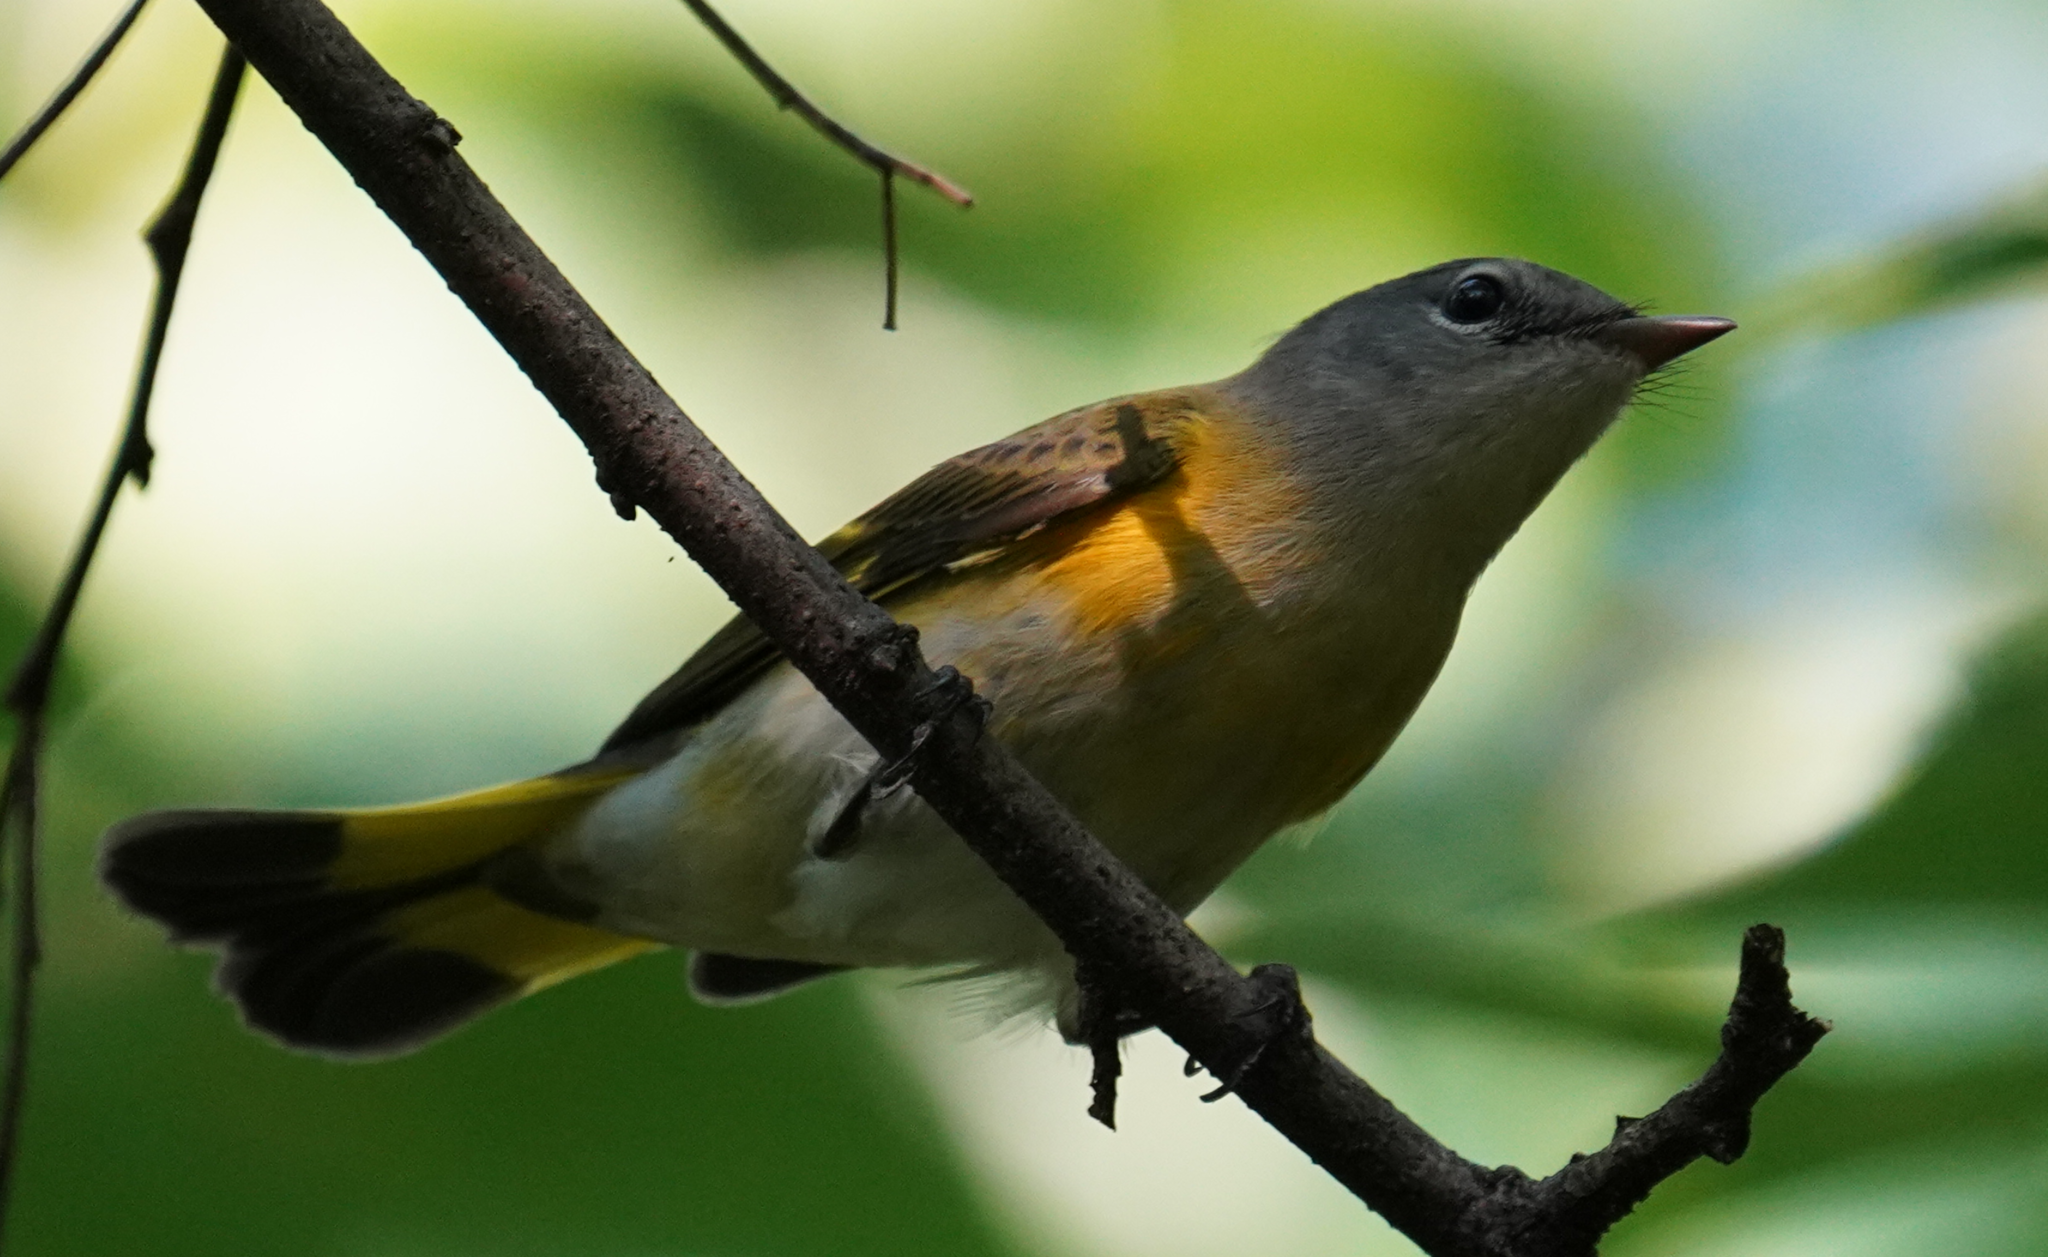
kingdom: Animalia
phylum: Chordata
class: Aves
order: Passeriformes
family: Parulidae
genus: Setophaga
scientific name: Setophaga ruticilla
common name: American redstart
